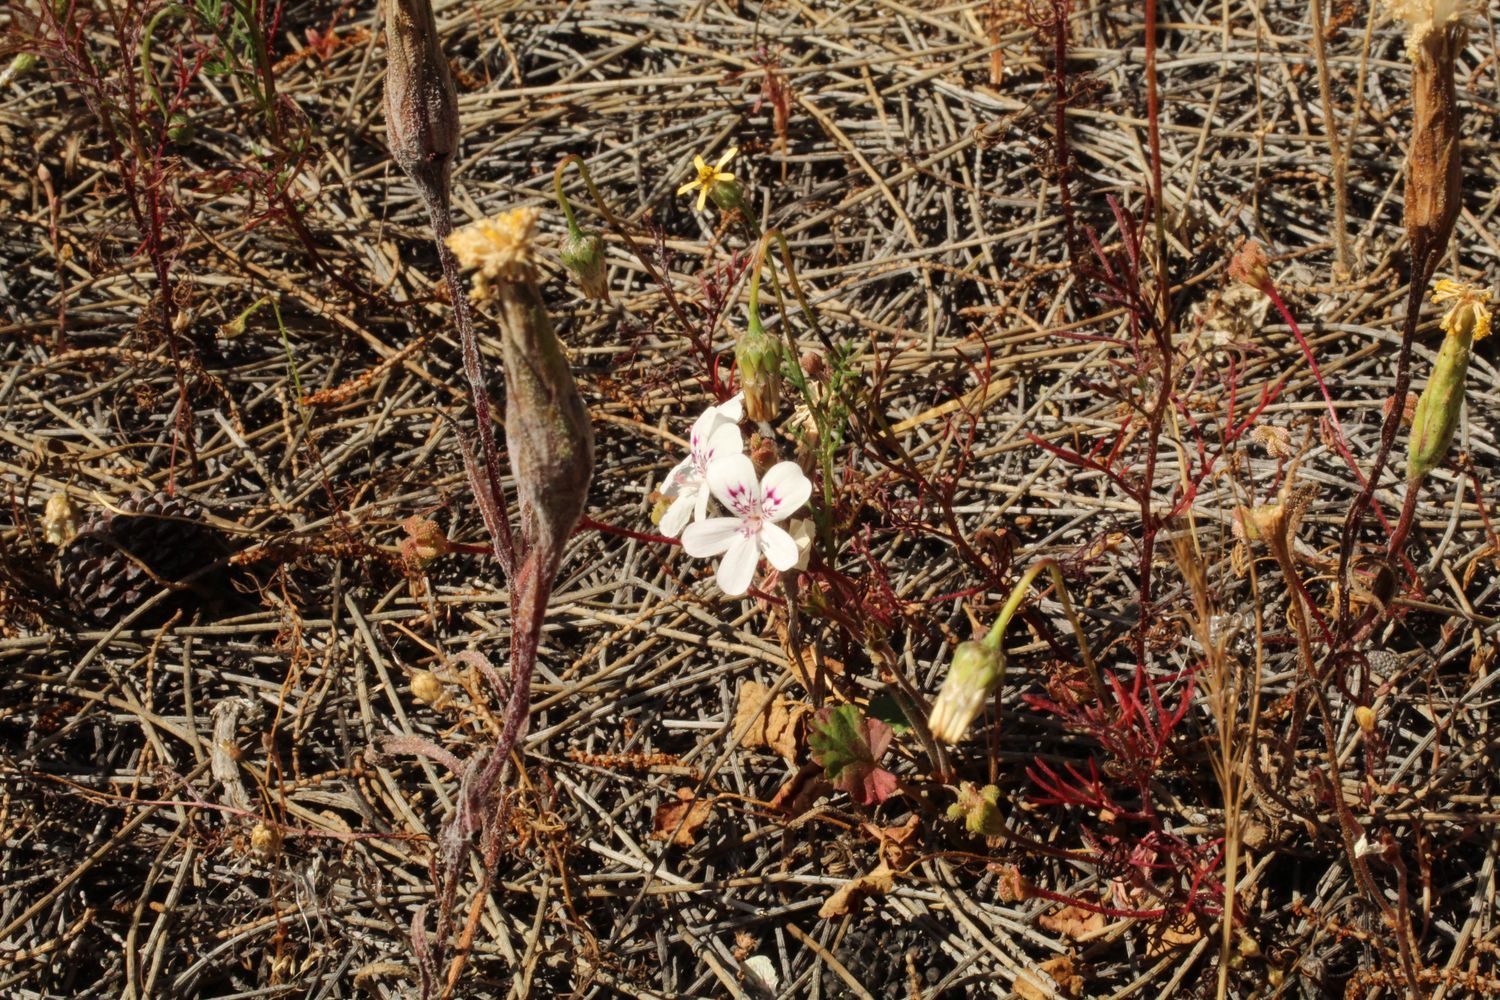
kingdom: Plantae
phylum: Tracheophyta
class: Magnoliopsida
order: Geraniales
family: Geraniaceae
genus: Pelargonium
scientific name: Pelargonium havlasae
